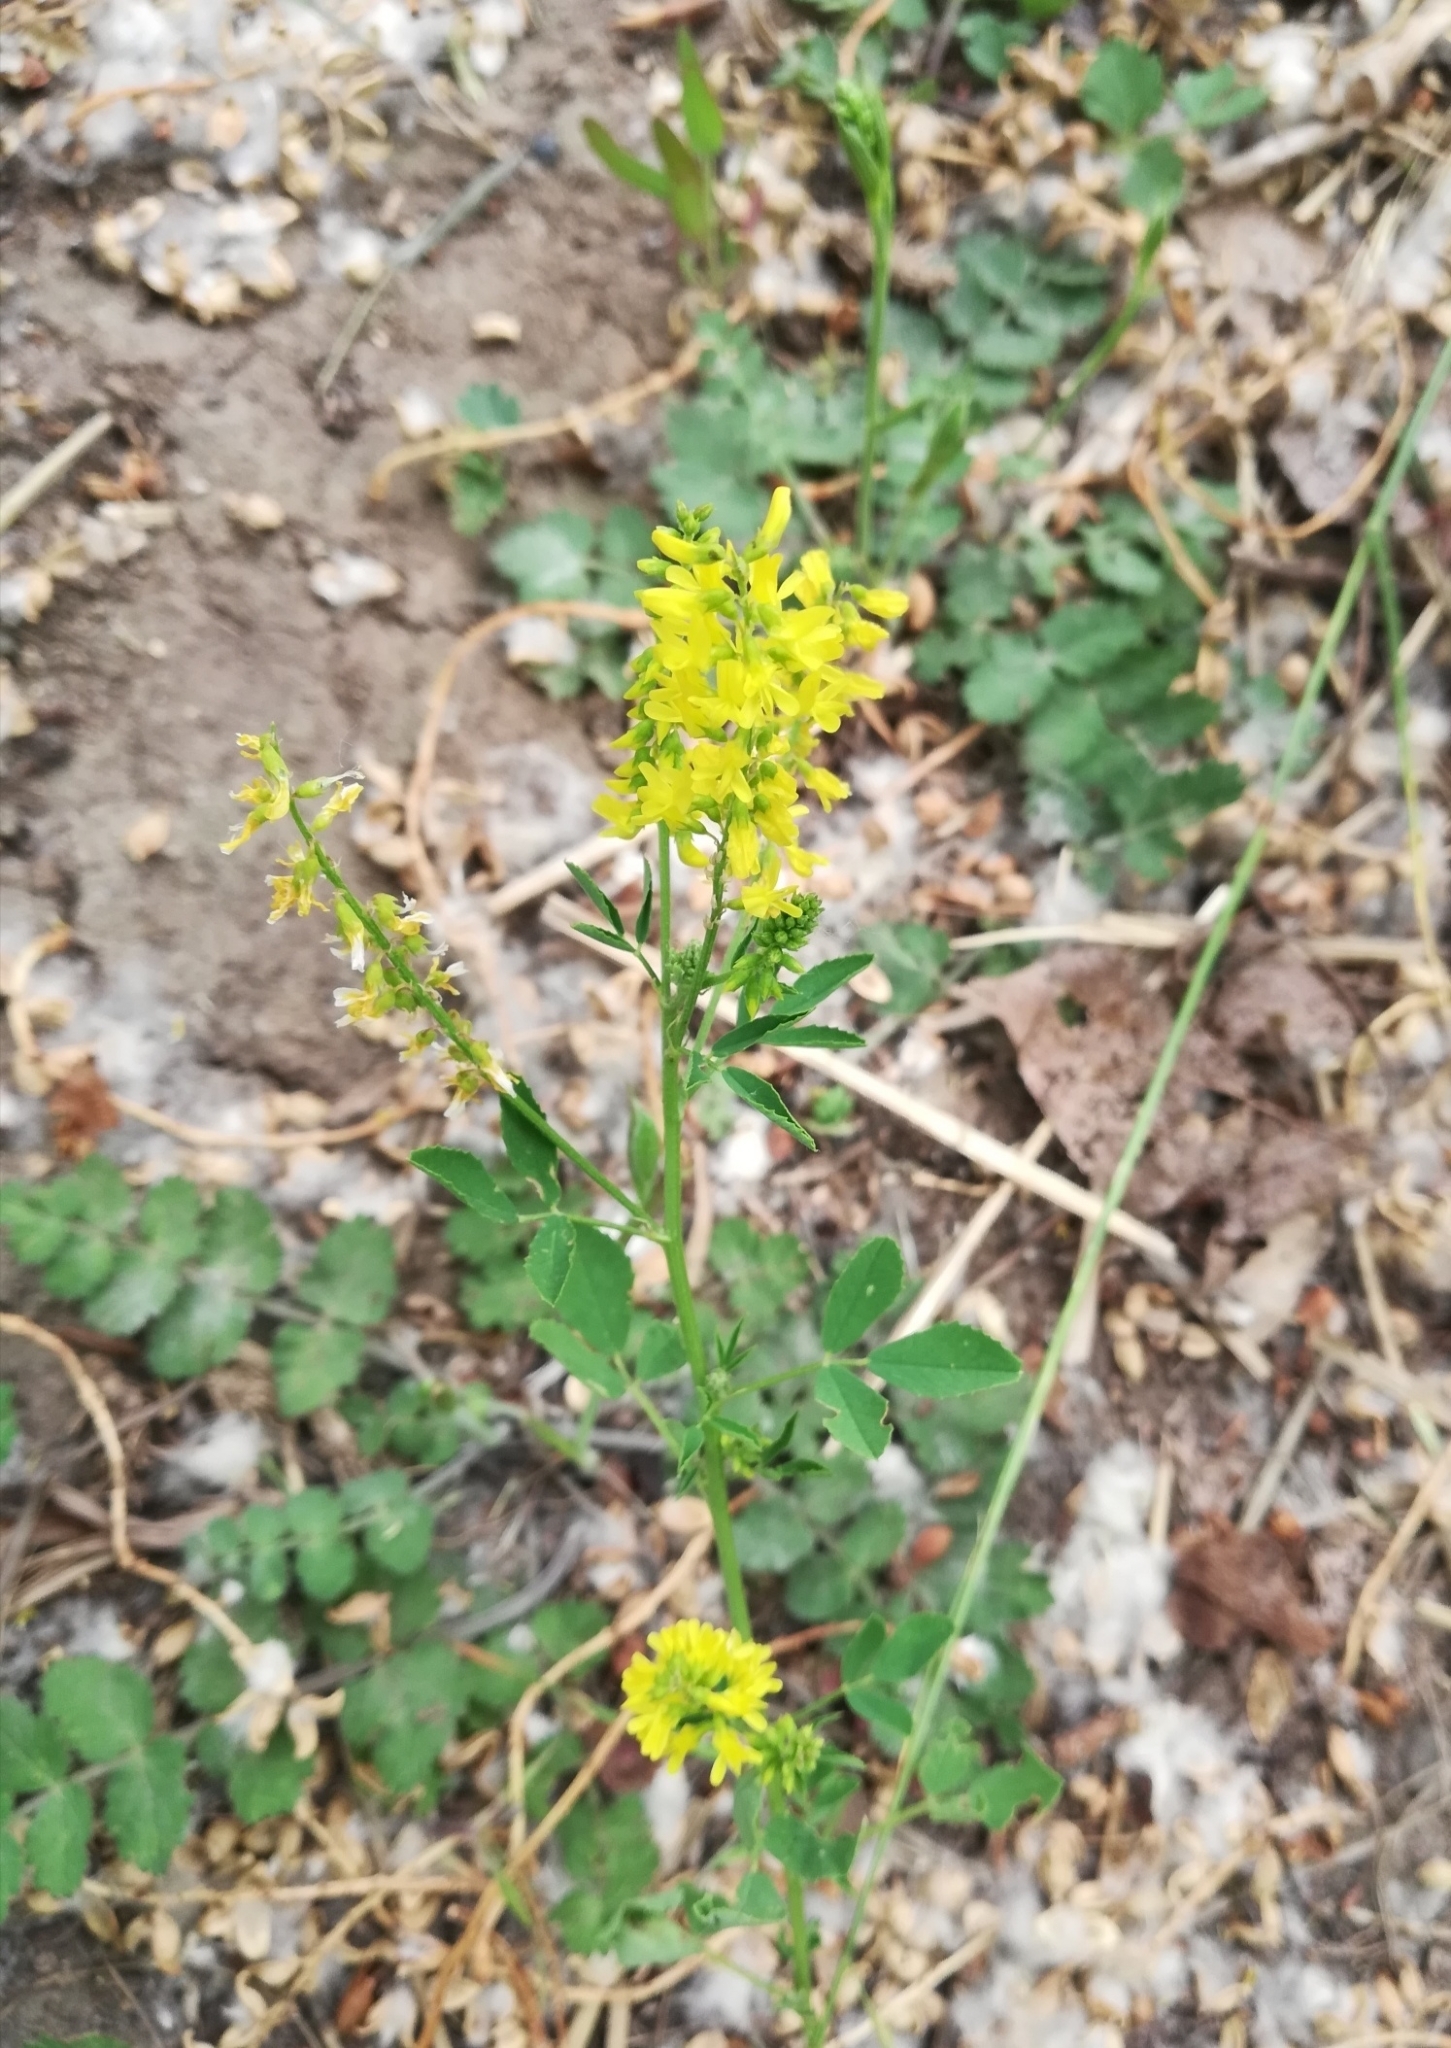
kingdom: Plantae
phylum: Tracheophyta
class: Magnoliopsida
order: Fabales
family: Fabaceae
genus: Melilotus
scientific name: Melilotus officinalis
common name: Sweetclover
